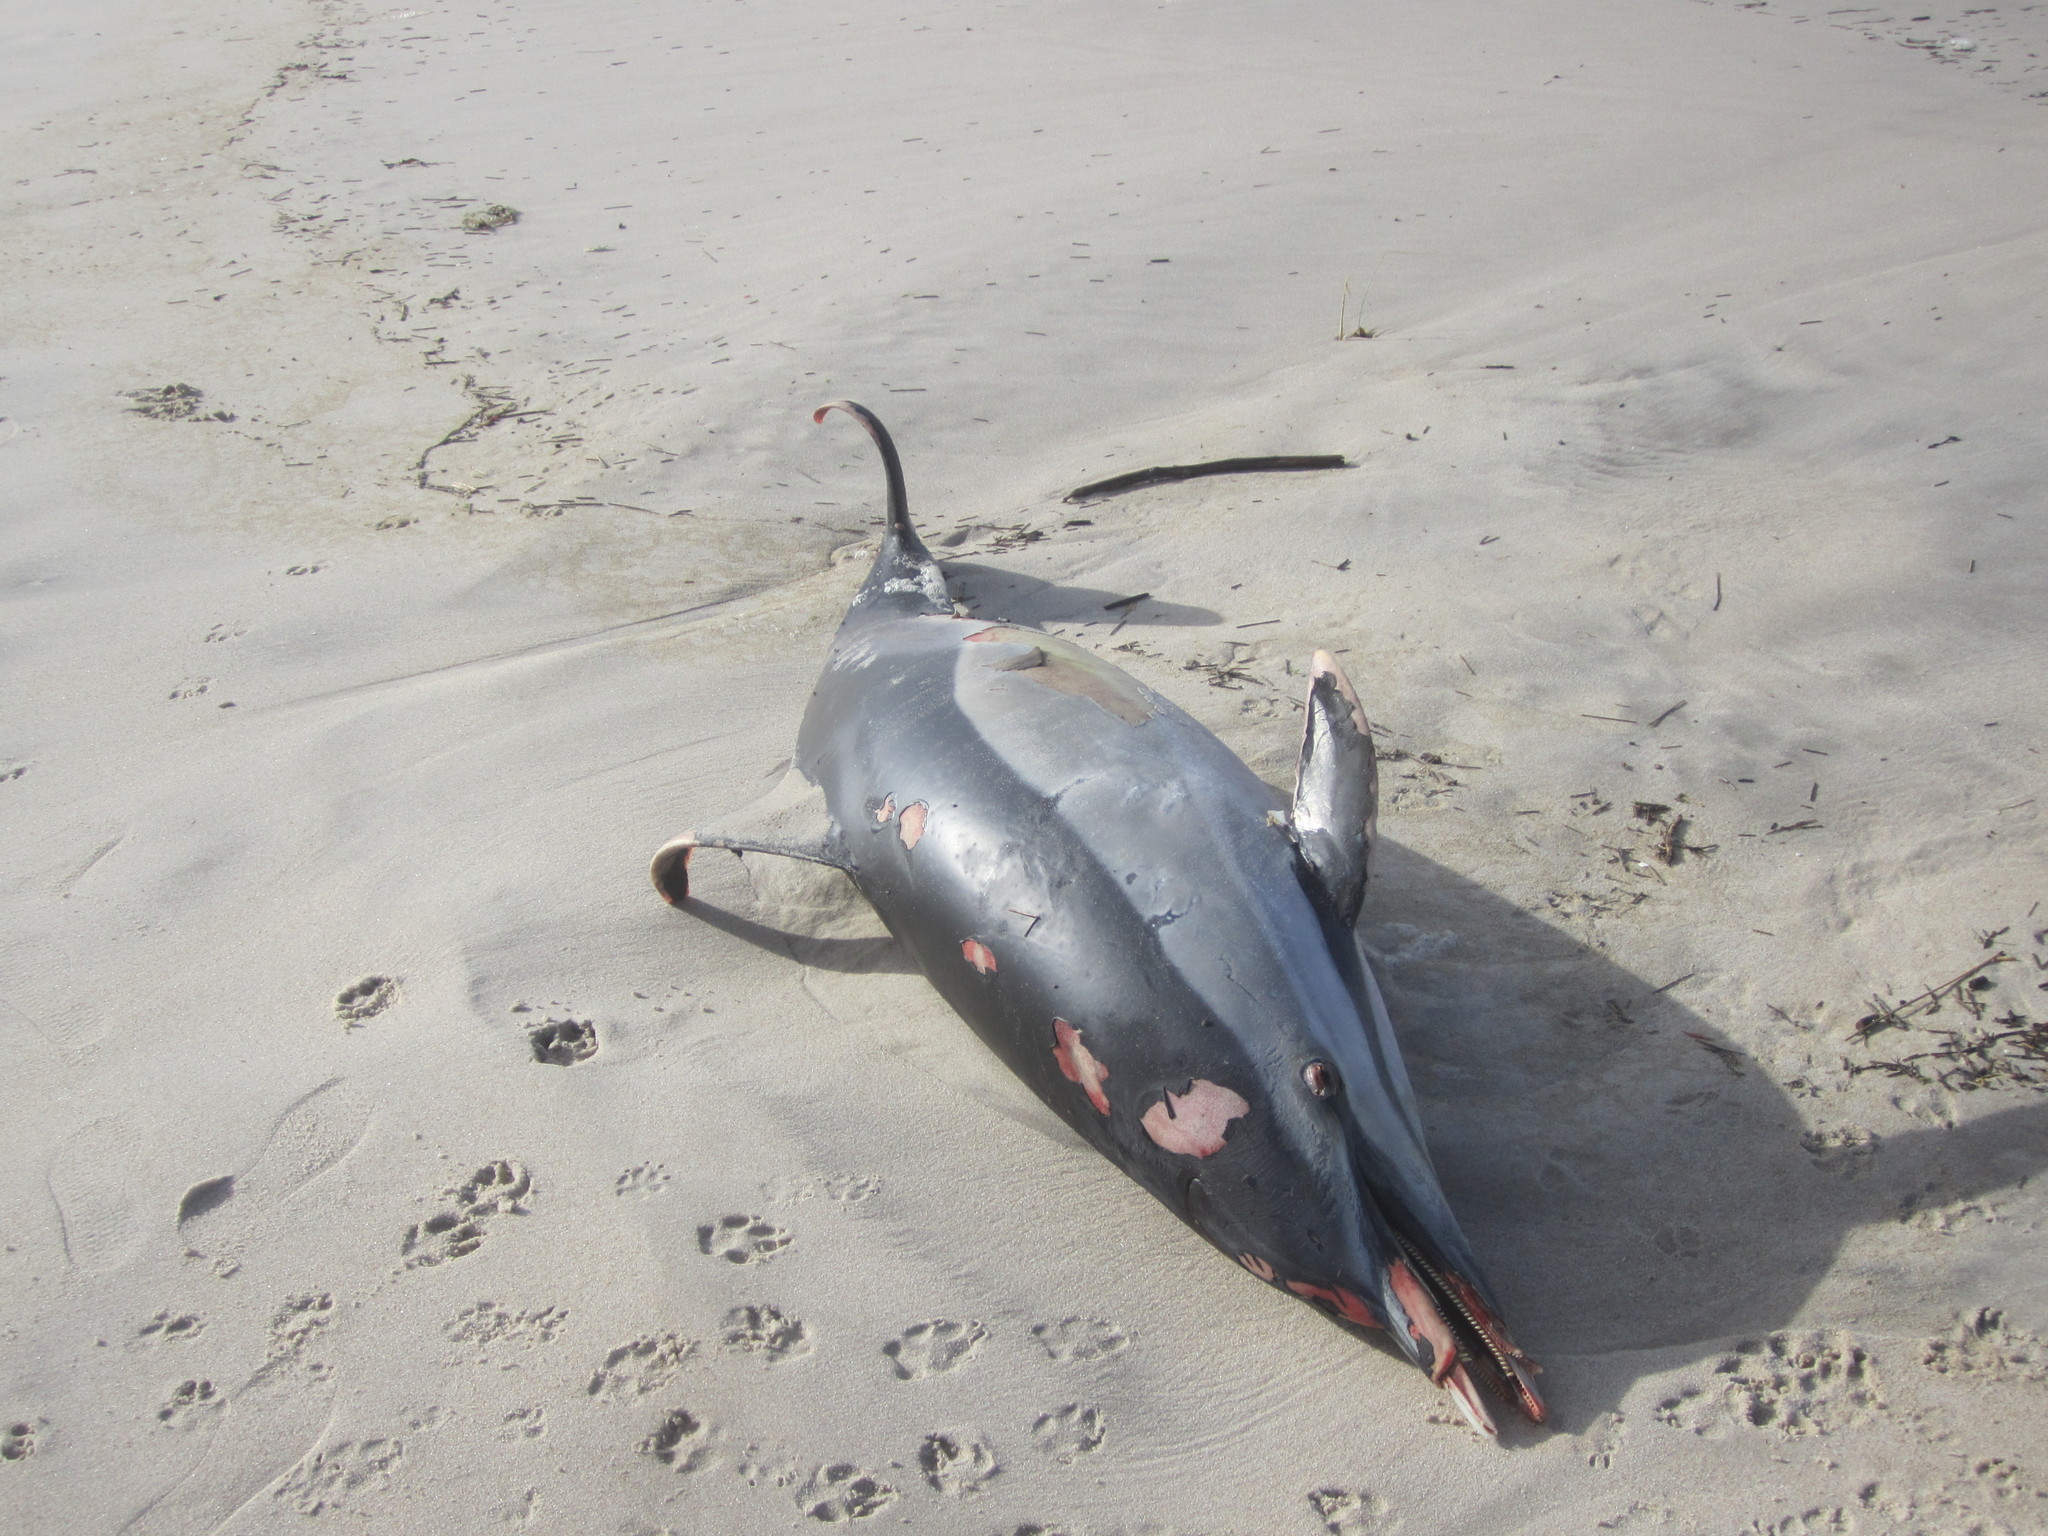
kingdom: Animalia
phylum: Chordata
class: Mammalia
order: Cetacea
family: Delphinidae
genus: Delphinus
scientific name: Delphinus delphis
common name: Common dolphin
